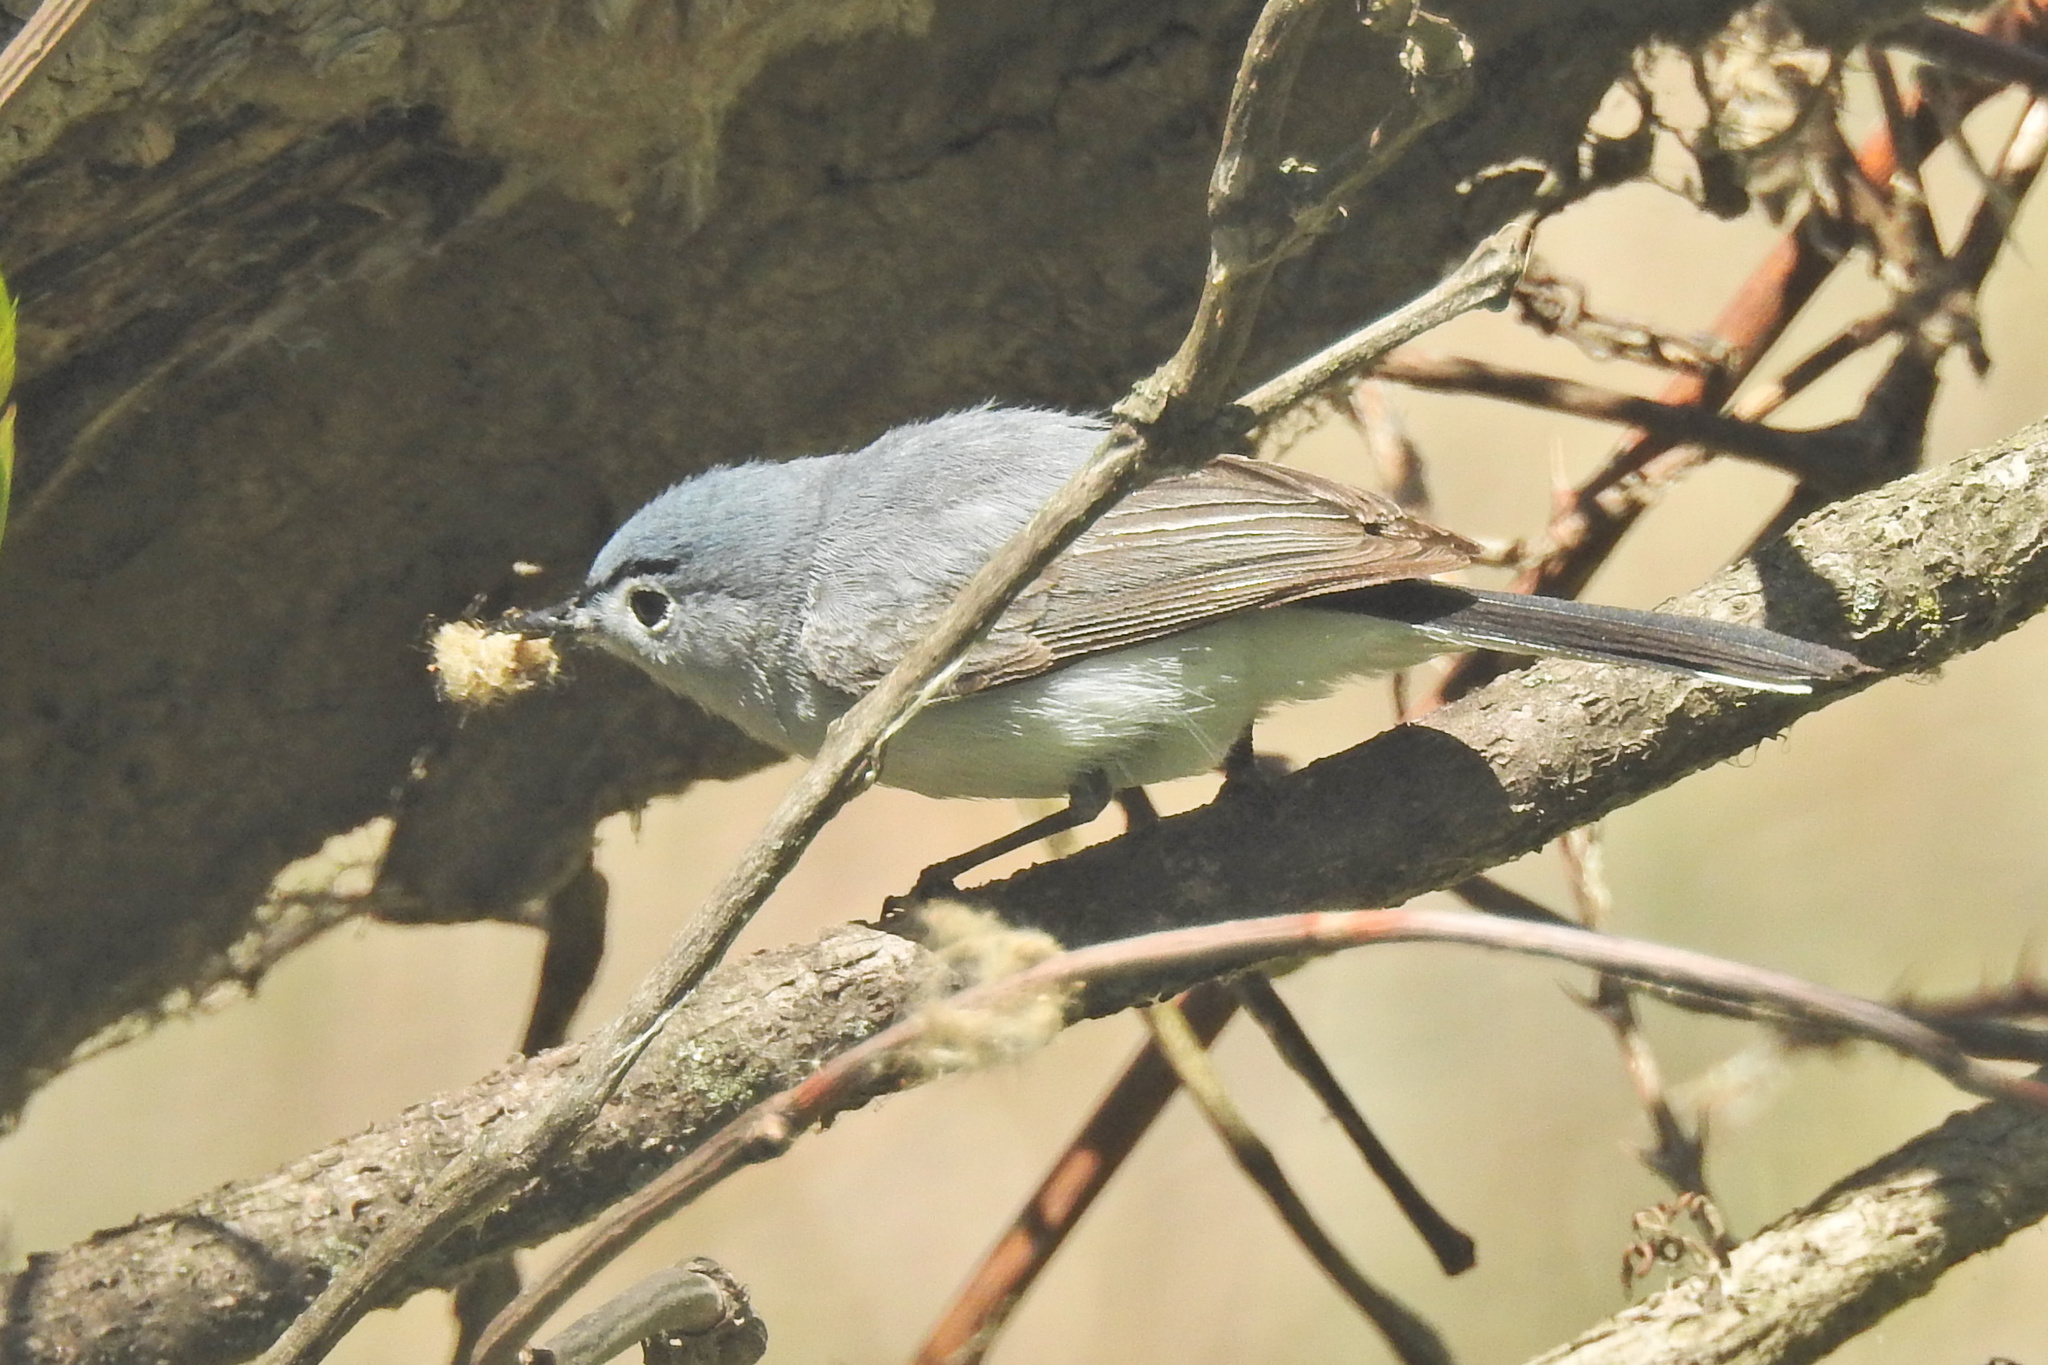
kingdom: Animalia
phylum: Chordata
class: Aves
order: Passeriformes
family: Polioptilidae
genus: Polioptila
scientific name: Polioptila caerulea
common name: Blue-gray gnatcatcher
